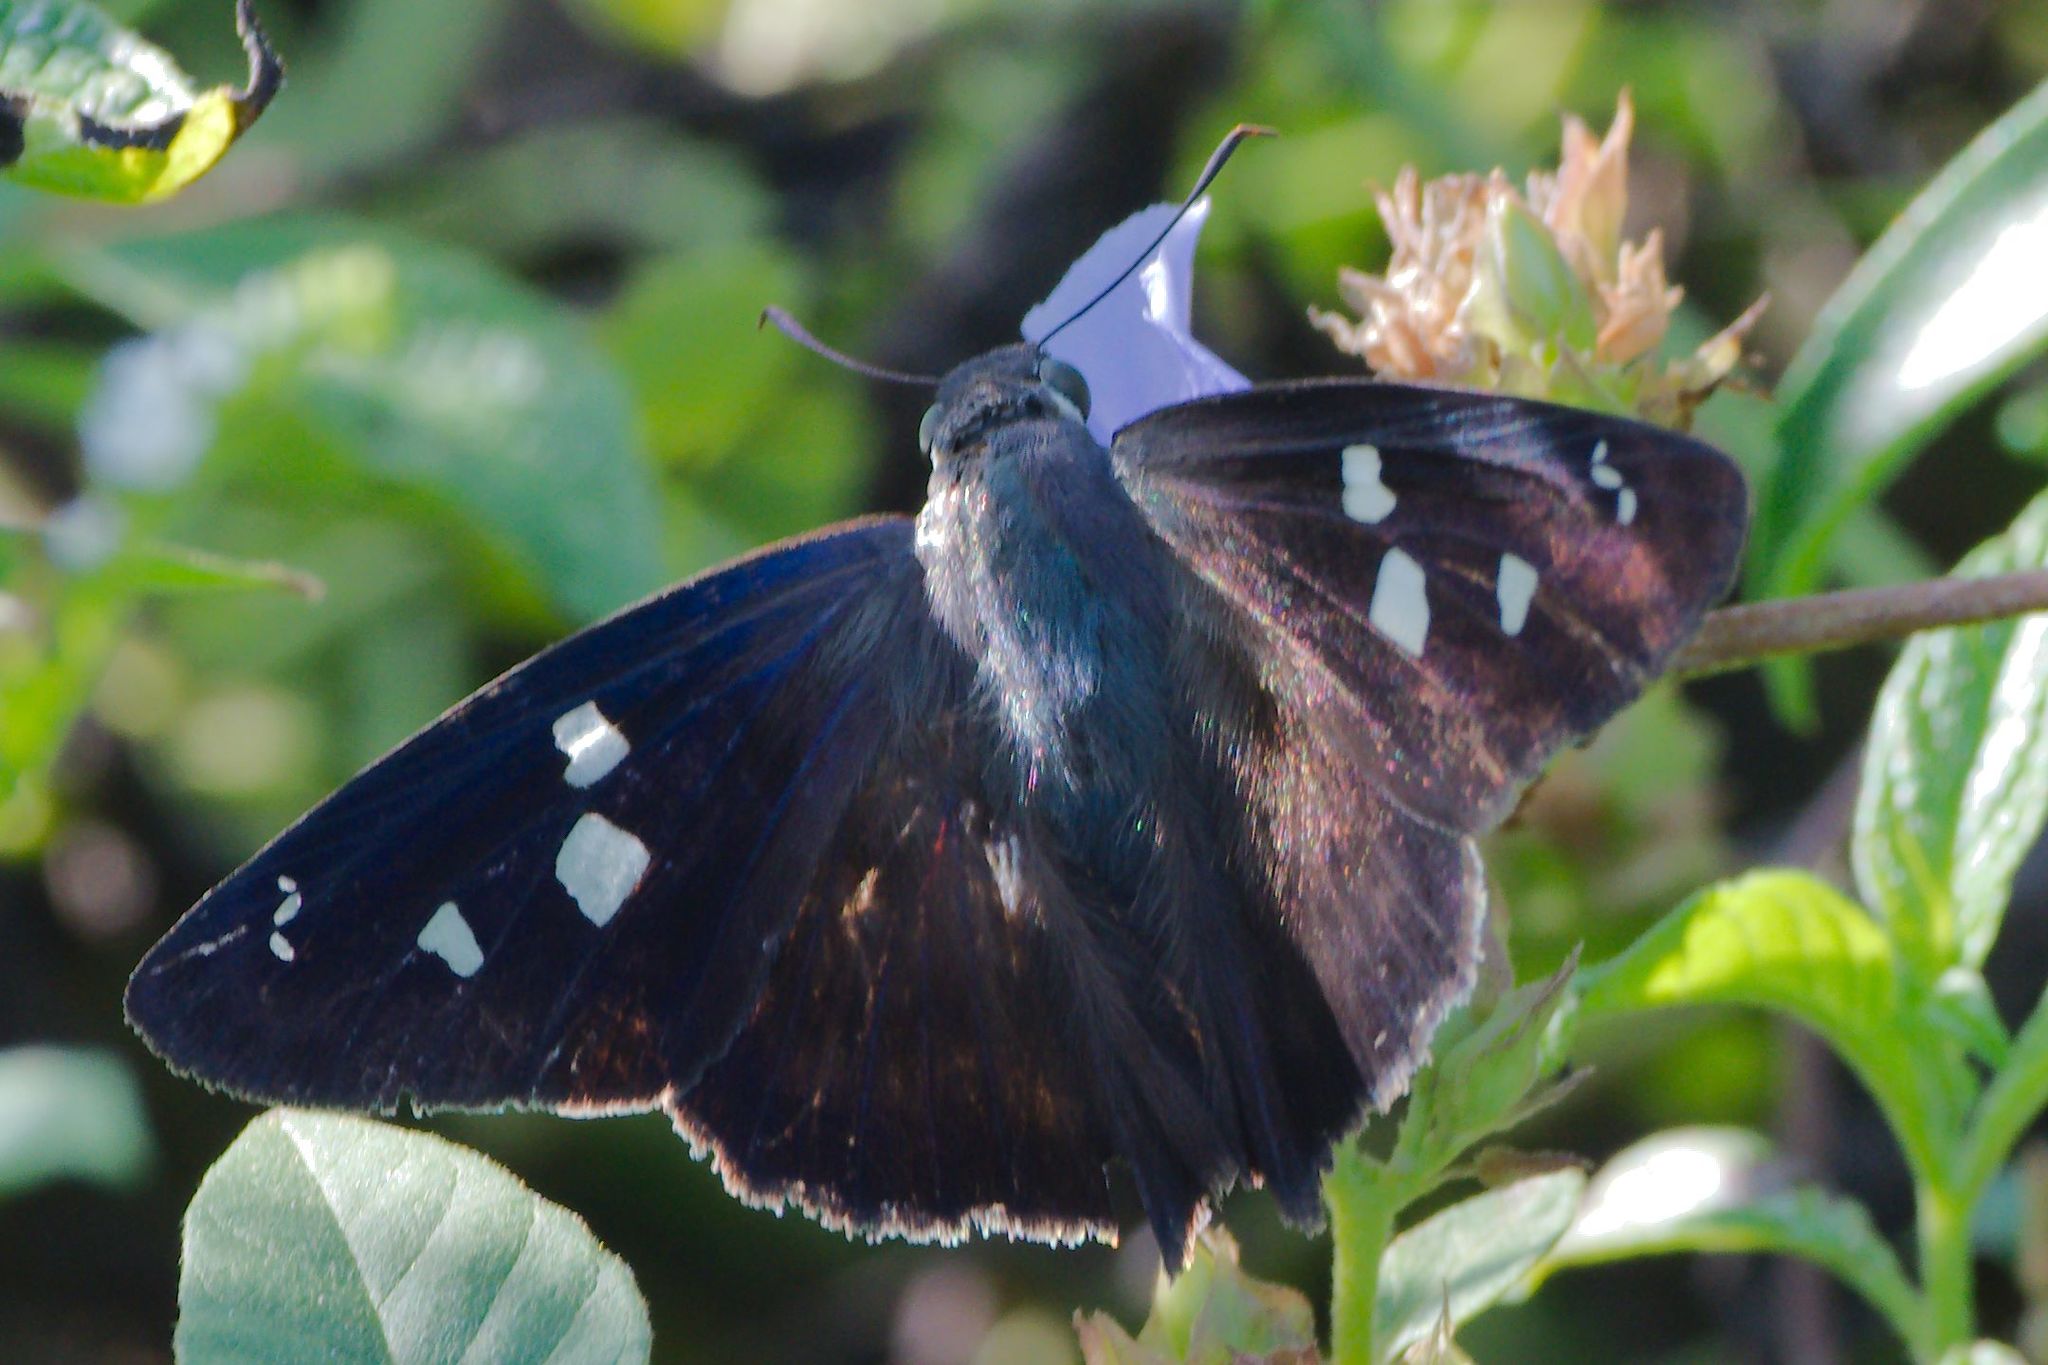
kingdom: Animalia
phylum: Arthropoda
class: Insecta
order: Lepidoptera
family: Hesperiidae
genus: Polygonus
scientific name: Polygonus leo
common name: Hammoch skipper
